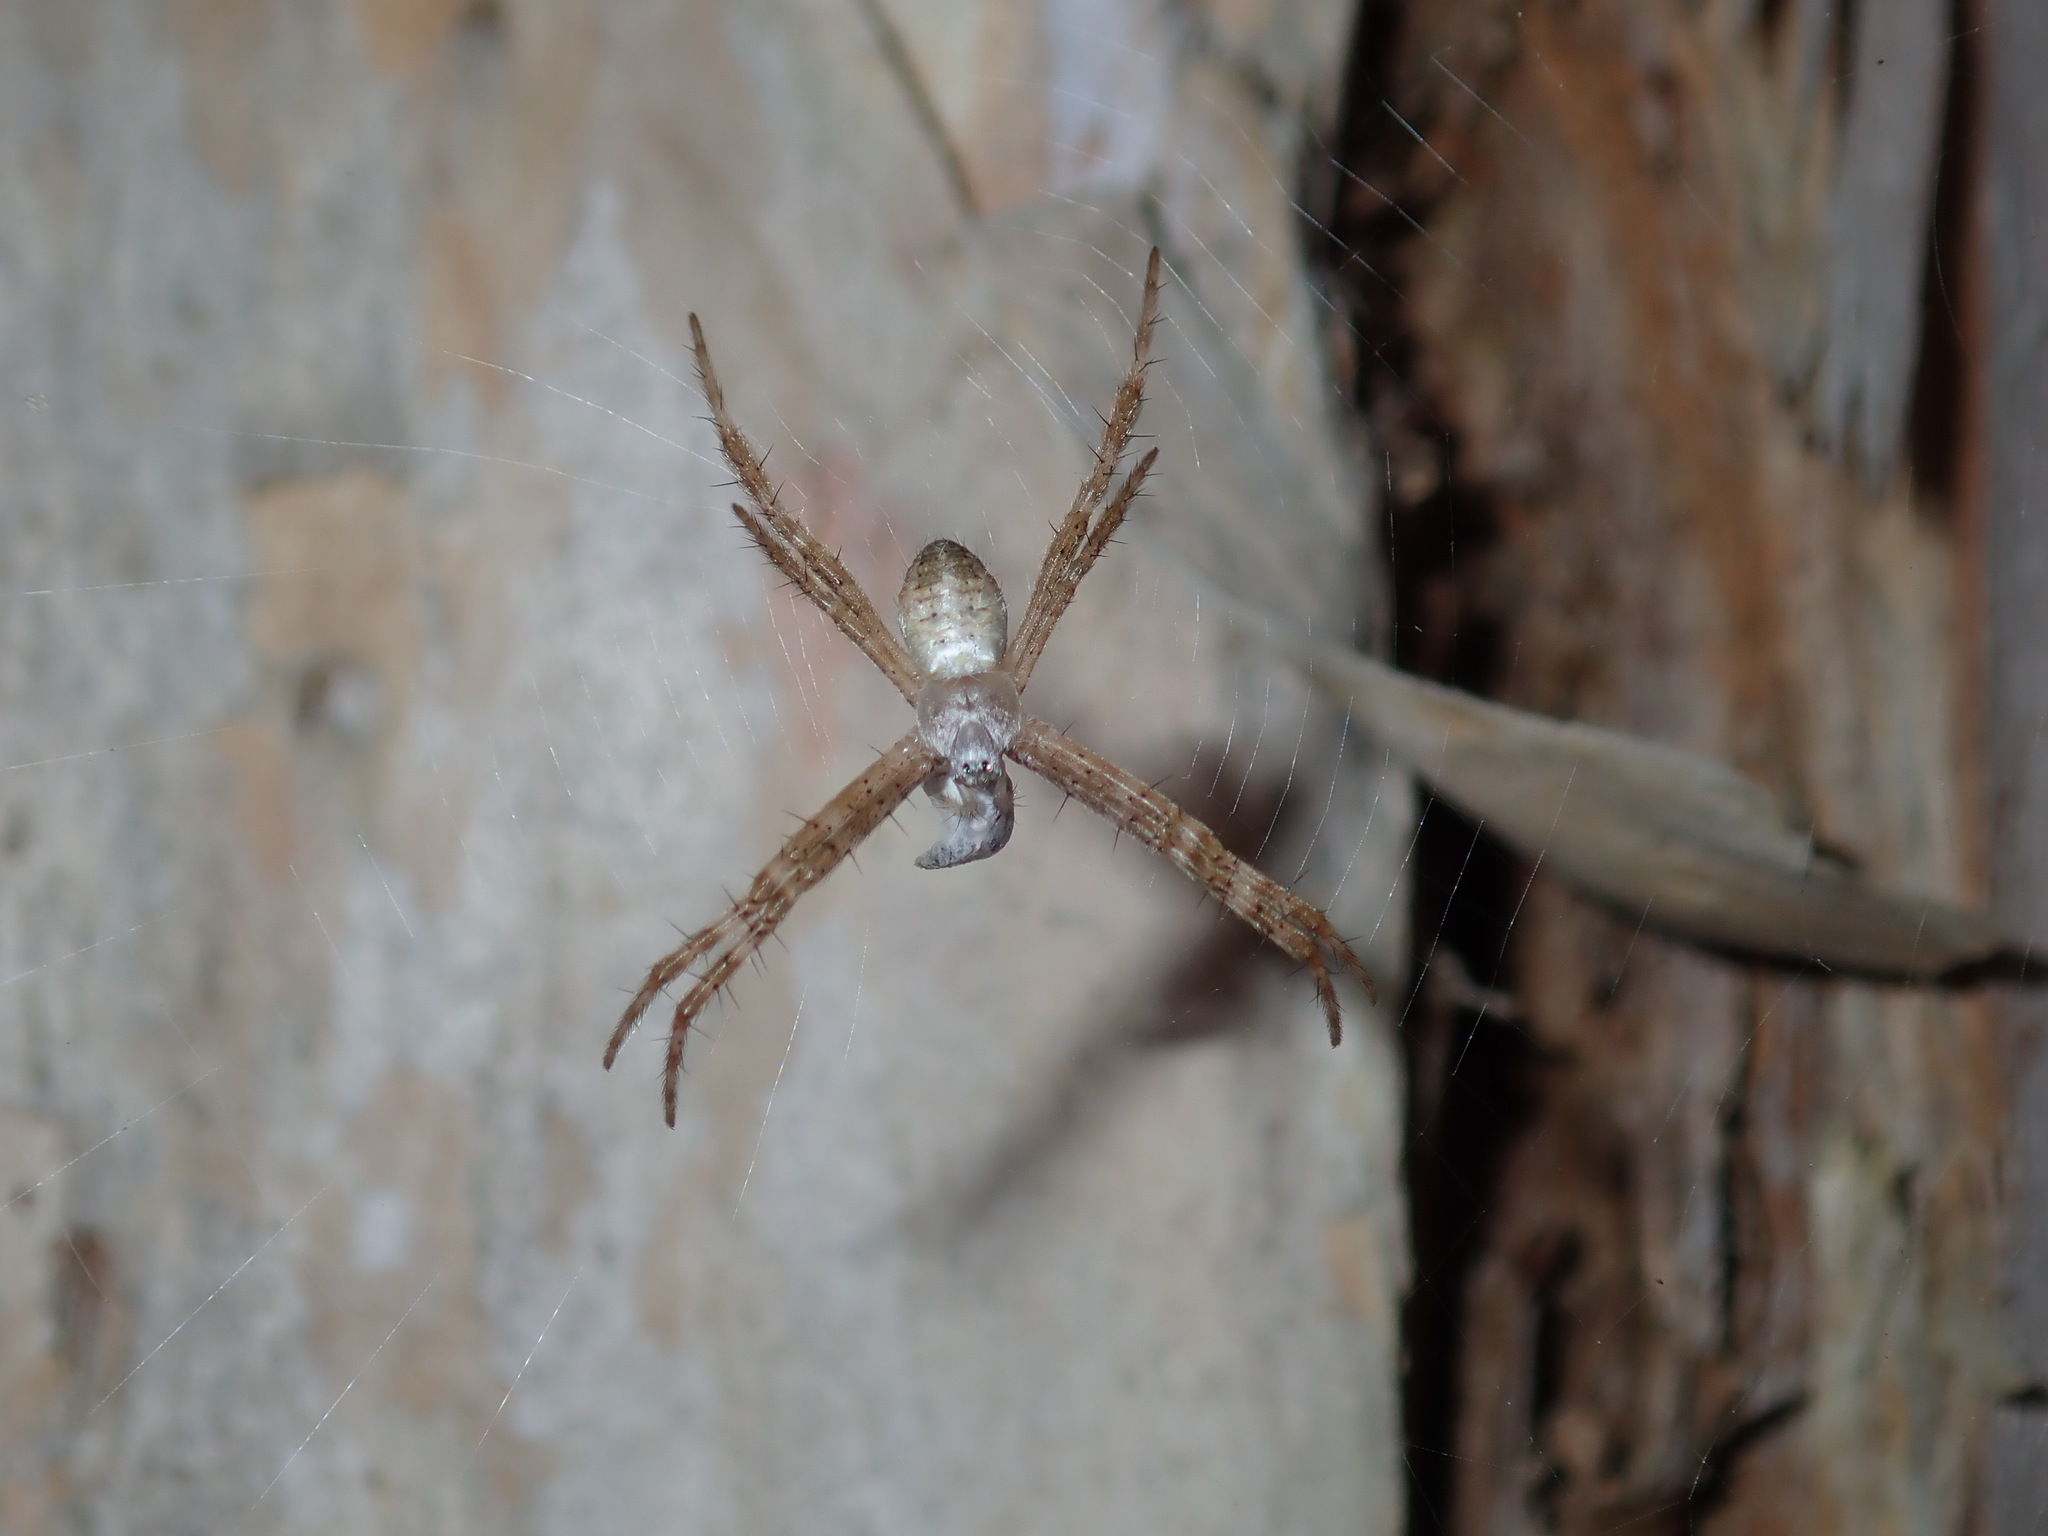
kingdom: Animalia
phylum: Arthropoda
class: Arachnida
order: Araneae
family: Araneidae
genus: Argiope
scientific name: Argiope keyserlingi
